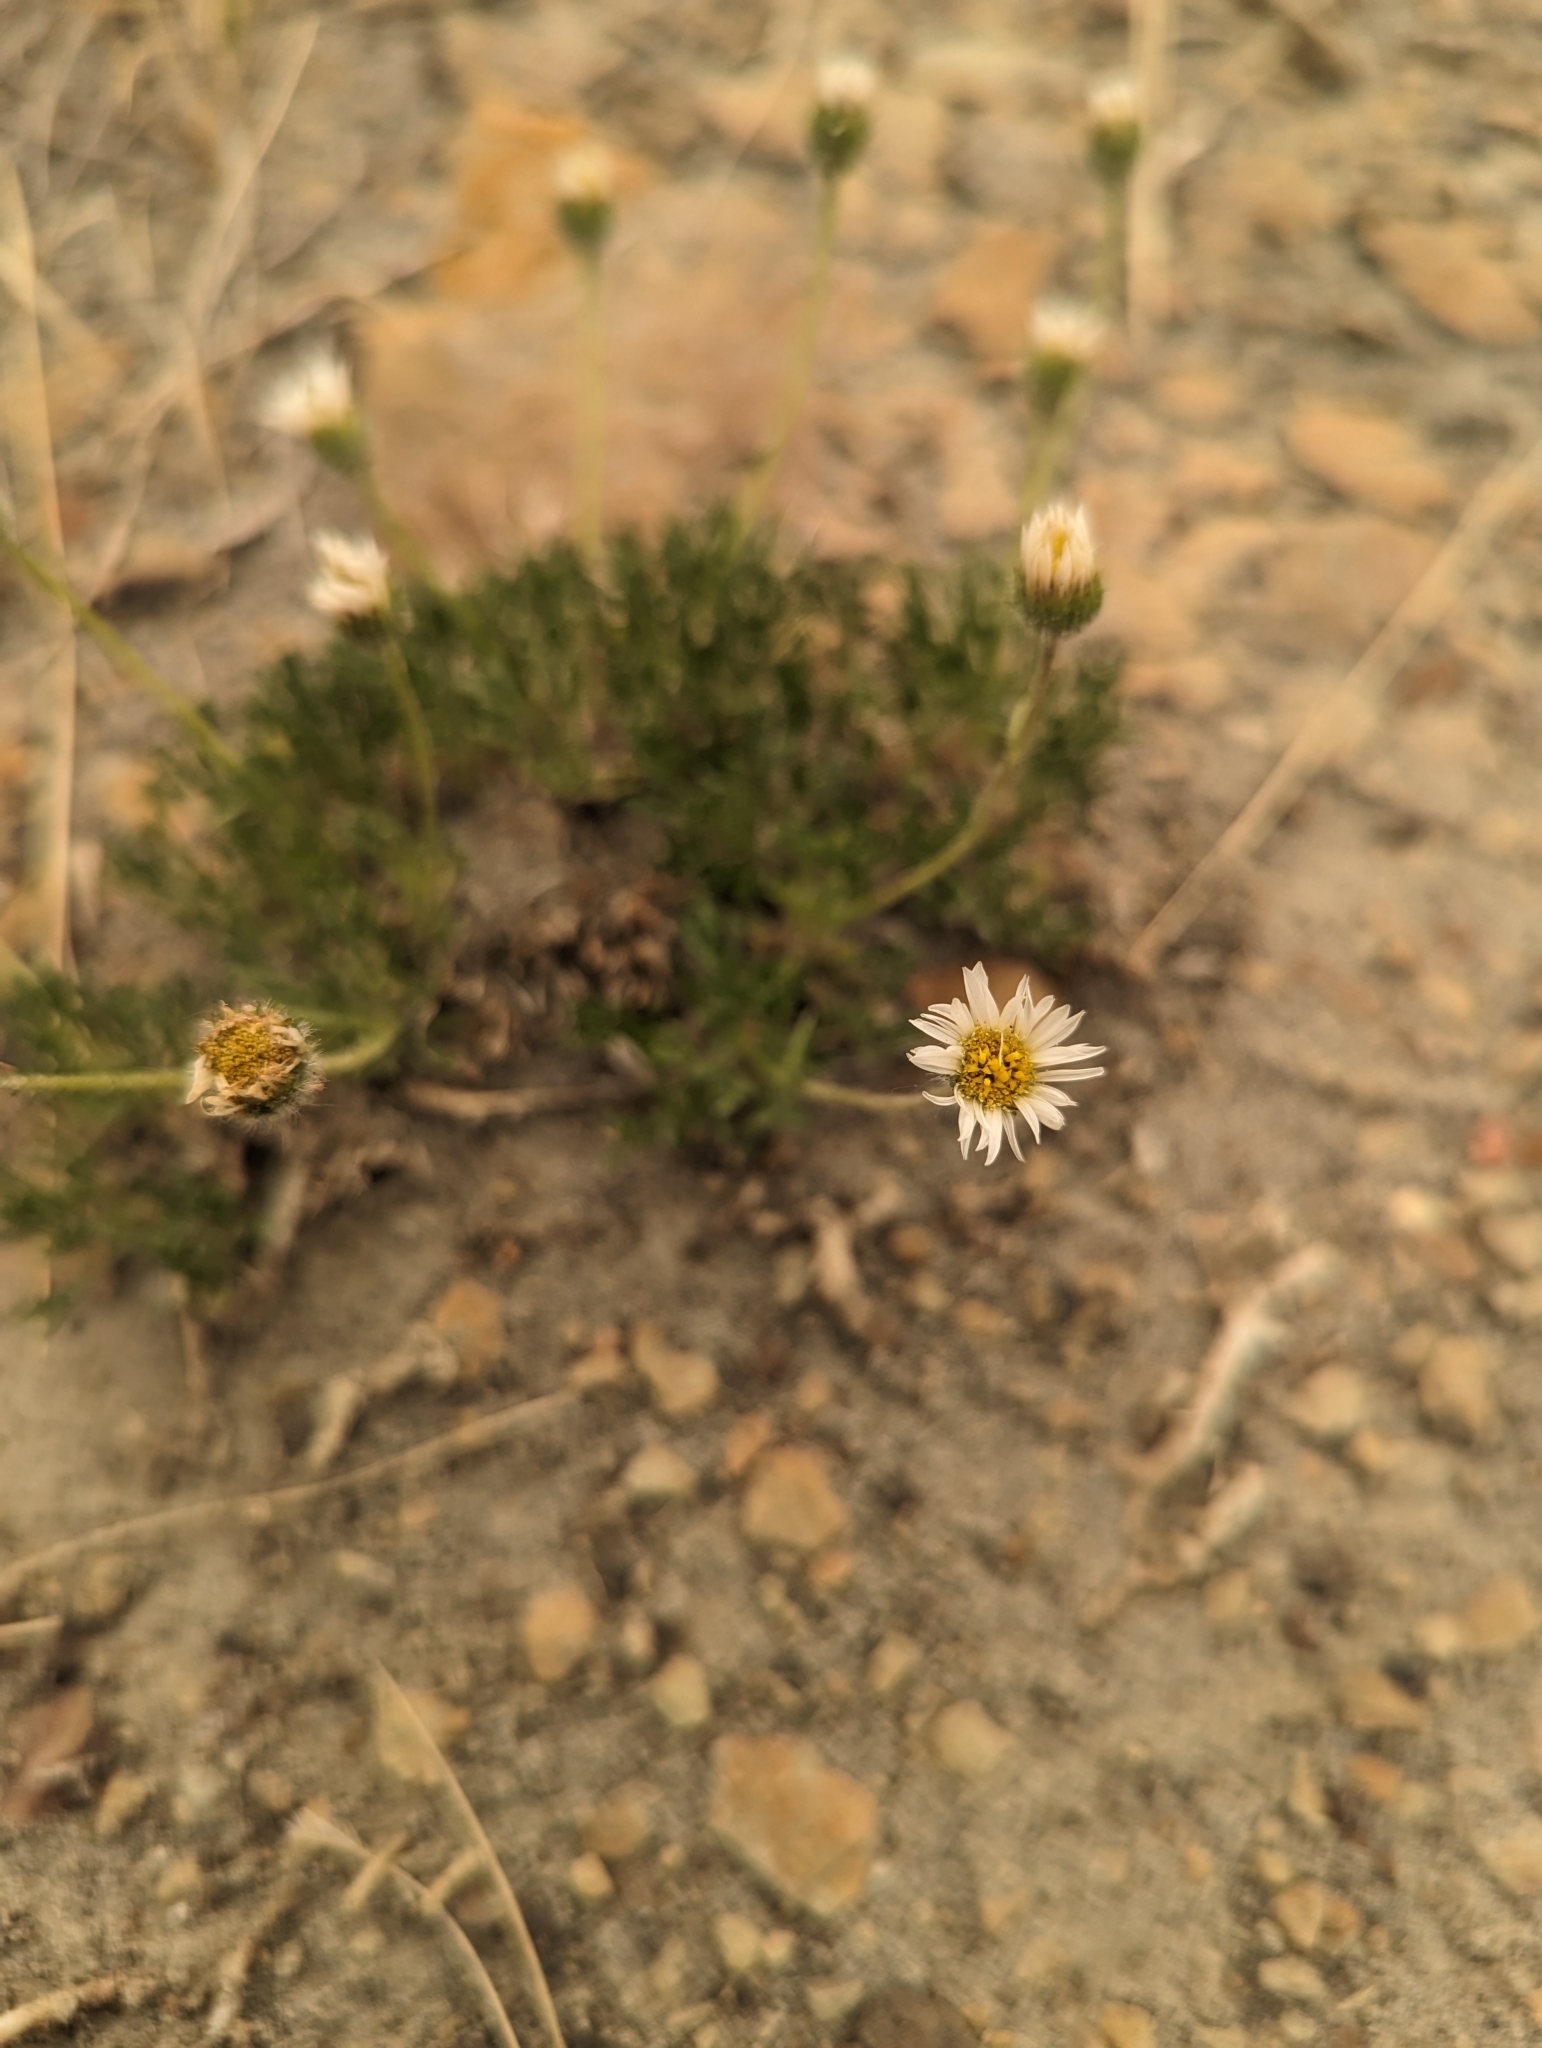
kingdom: Plantae
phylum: Tracheophyta
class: Magnoliopsida
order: Asterales
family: Asteraceae
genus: Erigeron
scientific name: Erigeron compositus
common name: Dwarf mountain fleabane
